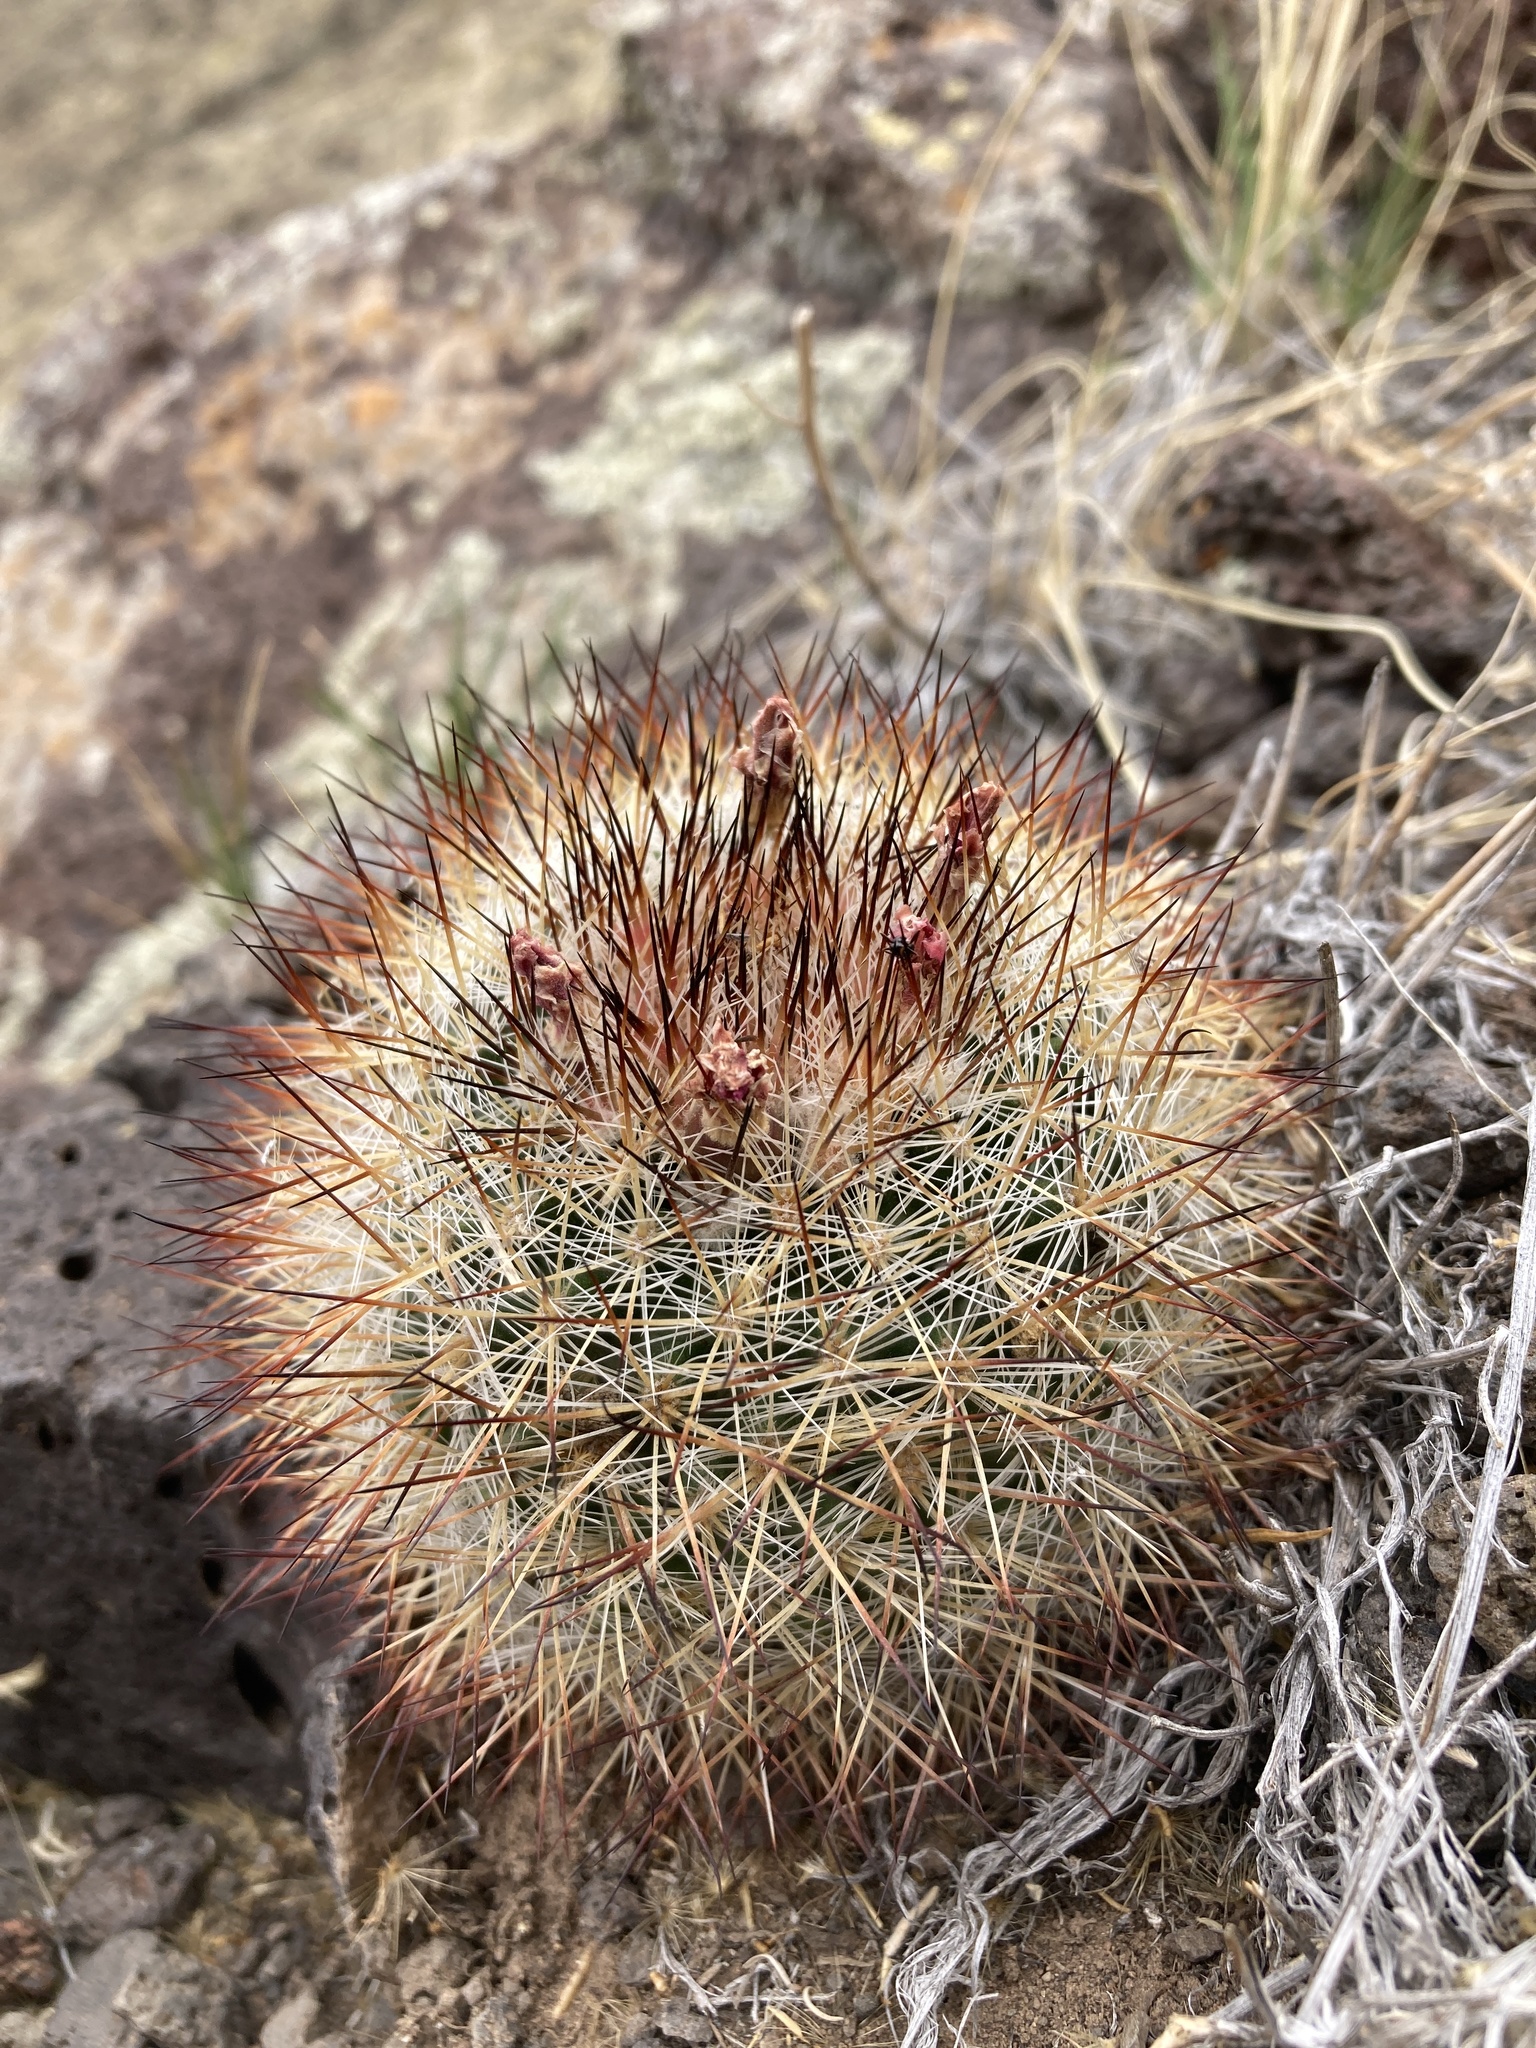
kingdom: Plantae
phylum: Tracheophyta
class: Magnoliopsida
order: Caryophyllales
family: Cactaceae
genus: Pediocactus
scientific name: Pediocactus simpsonii
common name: Simpson's hedgehog cactus
